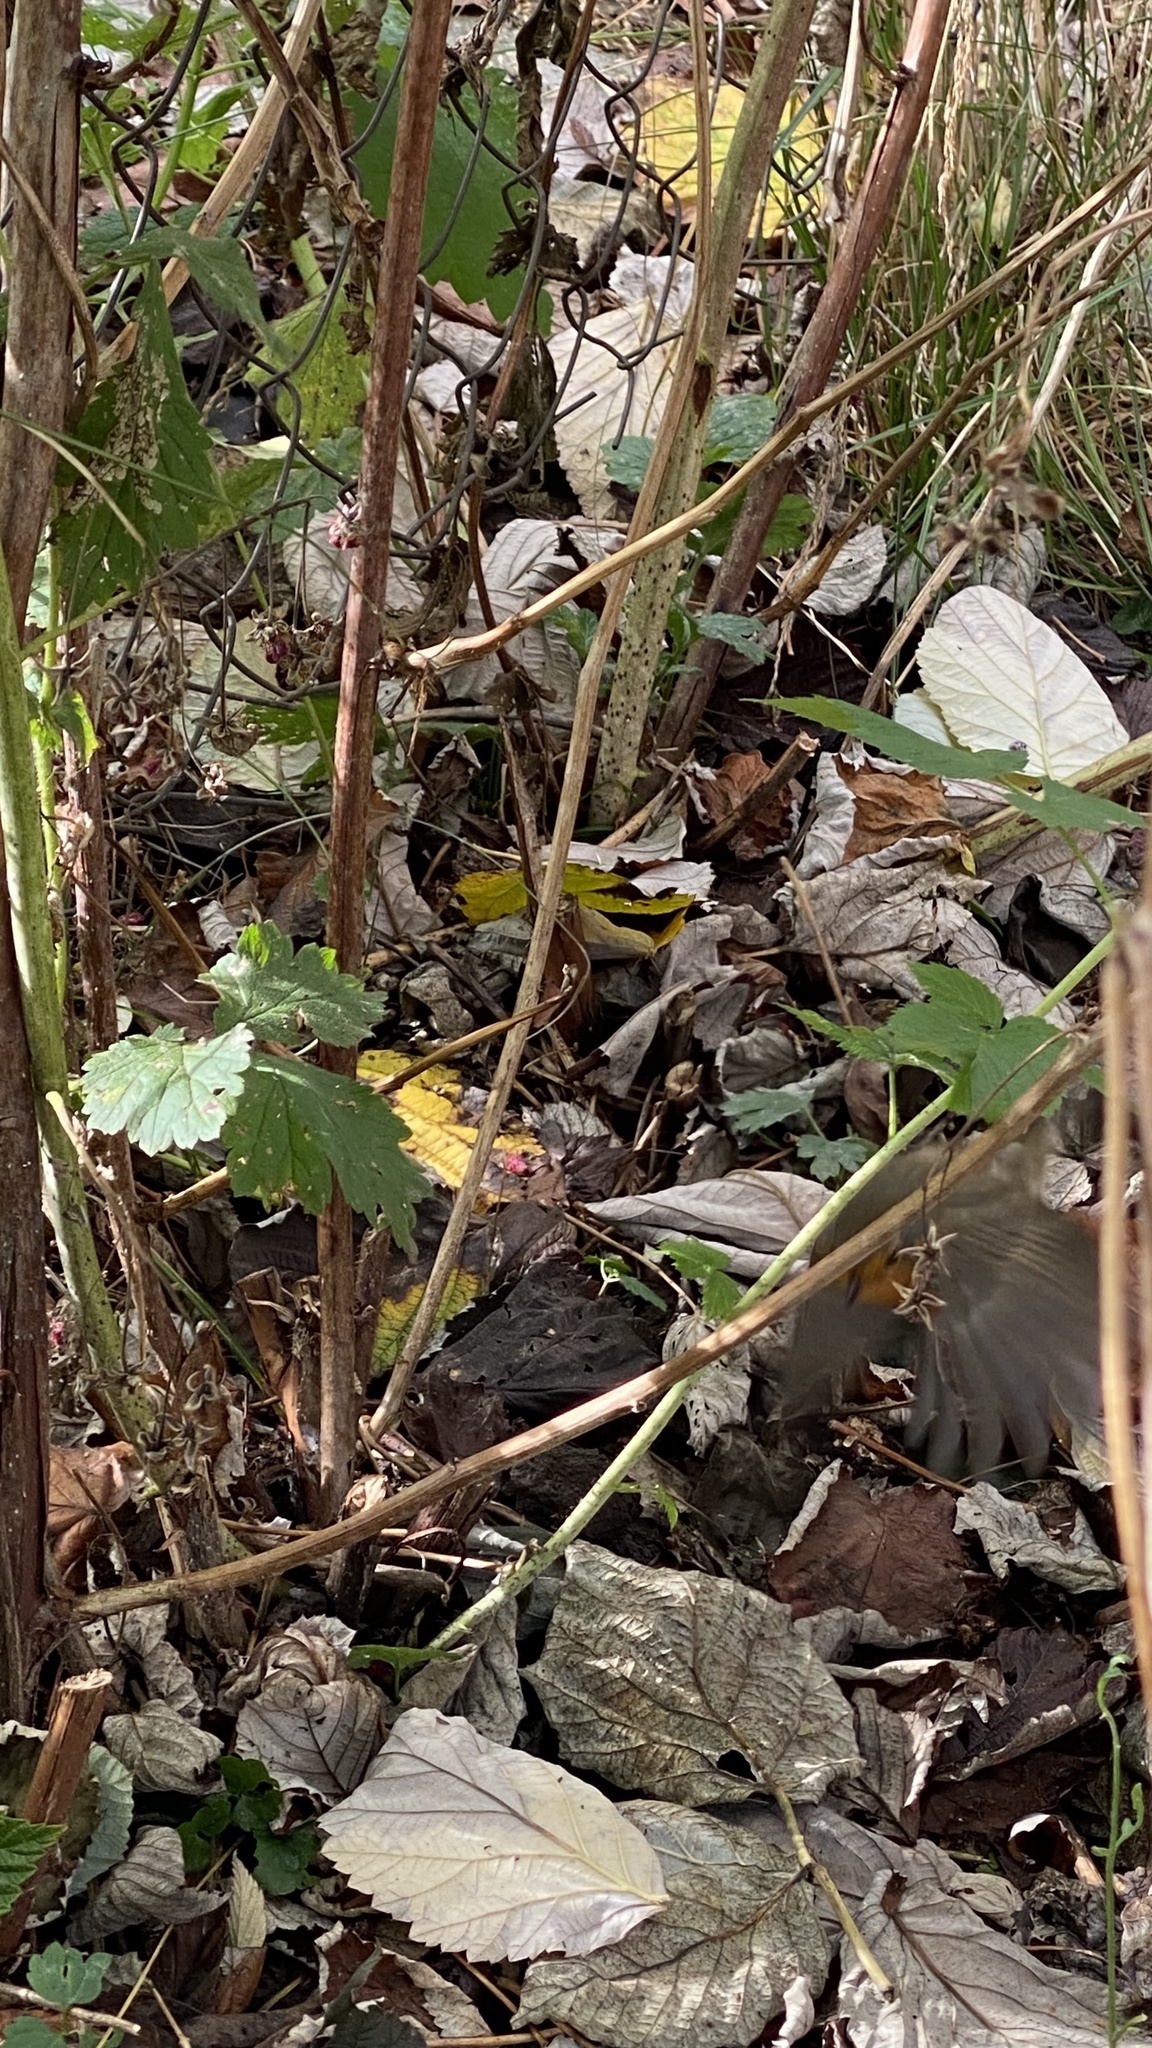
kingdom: Animalia
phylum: Chordata
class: Aves
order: Passeriformes
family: Muscicapidae
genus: Erithacus
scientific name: Erithacus rubecula
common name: European robin
